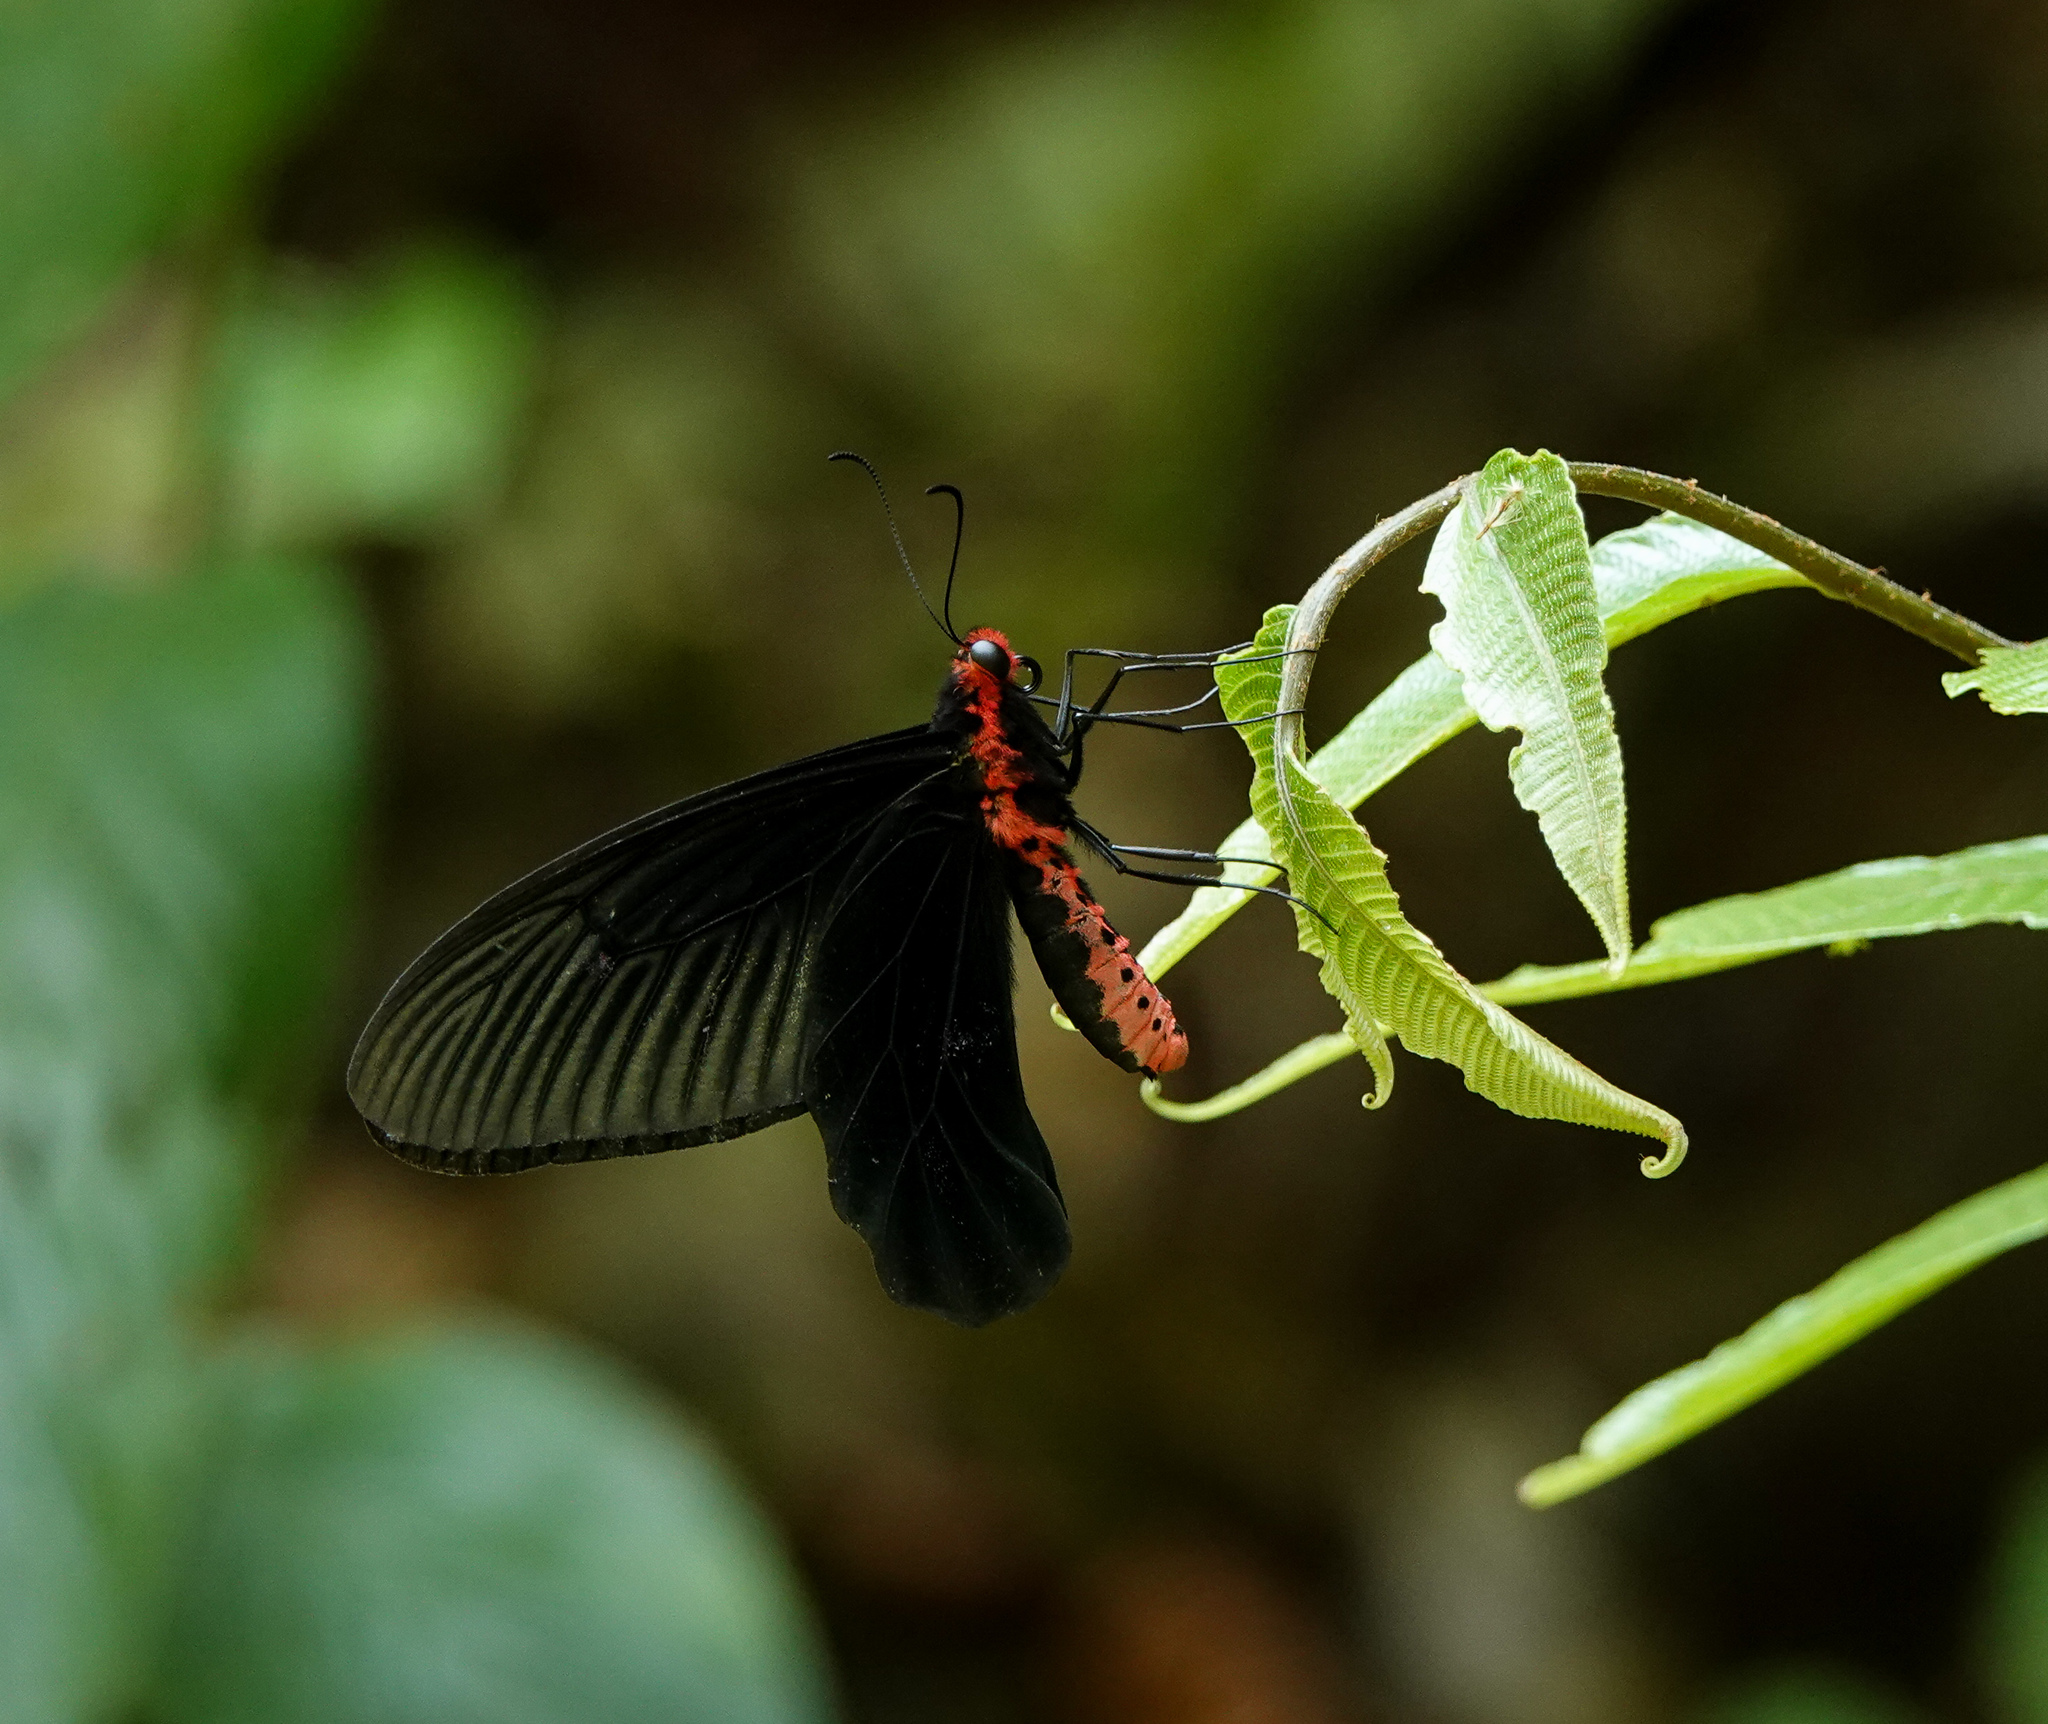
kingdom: Animalia
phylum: Arthropoda
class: Insecta
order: Lepidoptera
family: Papilionidae
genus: Atrophaneura
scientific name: Atrophaneura varuna
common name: Common batwing
